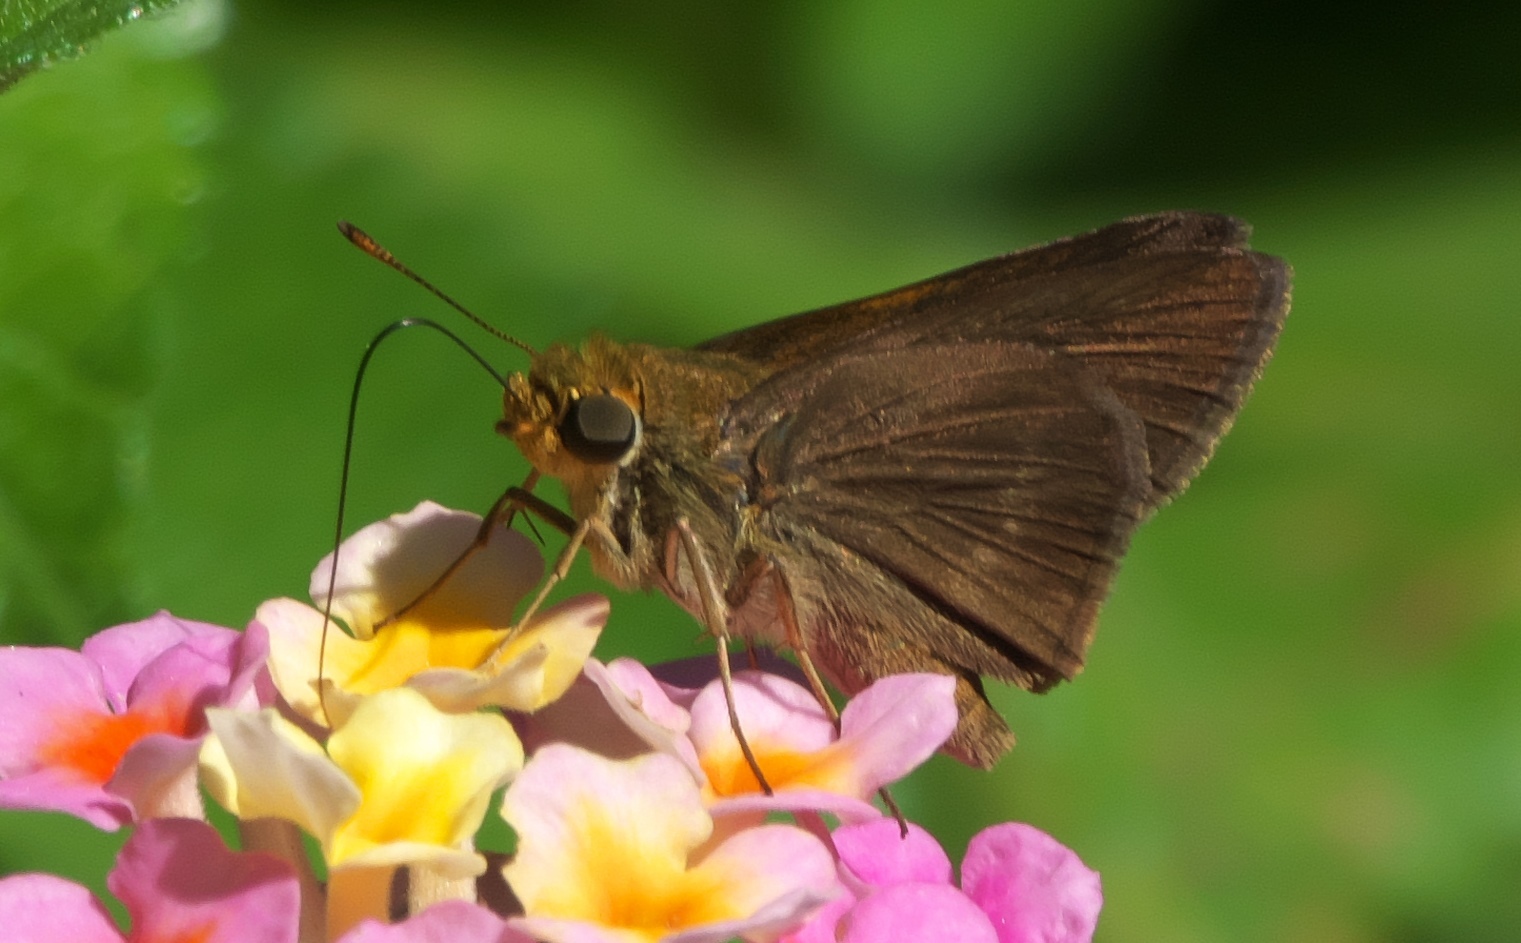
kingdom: Animalia
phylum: Arthropoda
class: Insecta
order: Lepidoptera
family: Hesperiidae
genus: Euphyes
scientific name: Euphyes vestris
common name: Dun skipper
